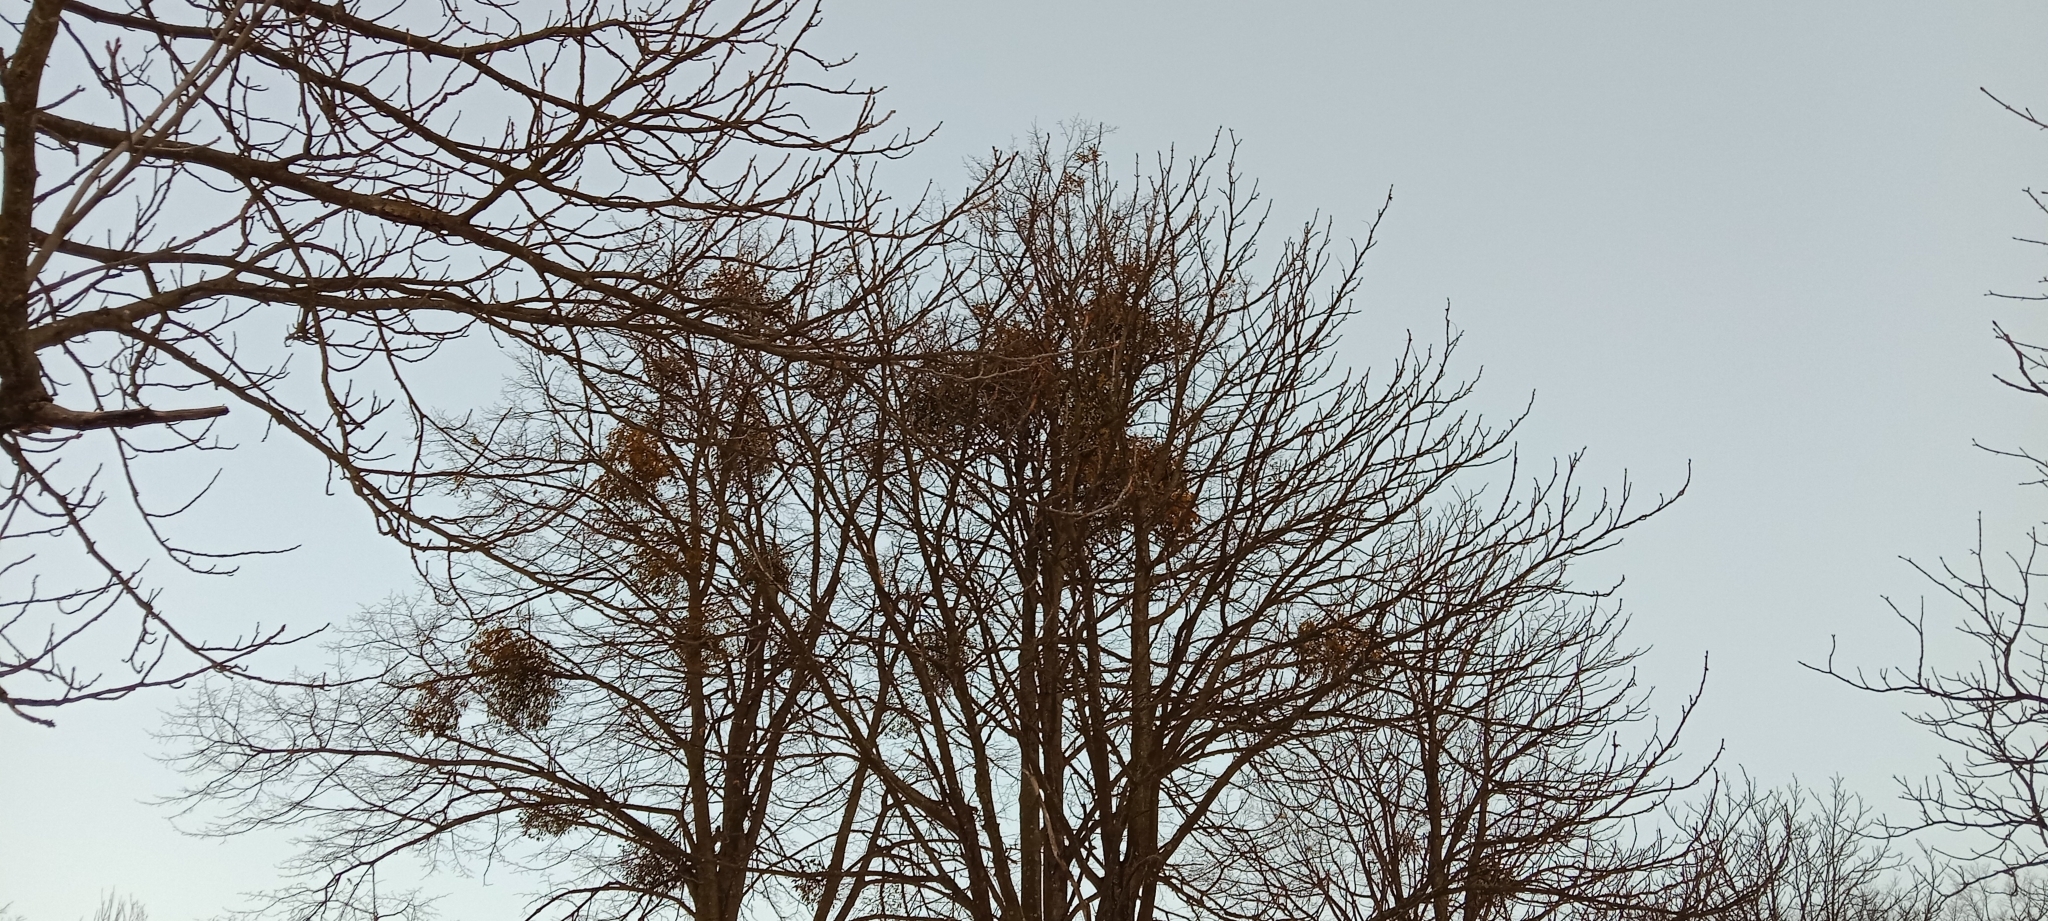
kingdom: Plantae
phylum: Tracheophyta
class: Magnoliopsida
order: Santalales
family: Viscaceae
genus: Viscum
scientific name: Viscum album
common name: Mistletoe
